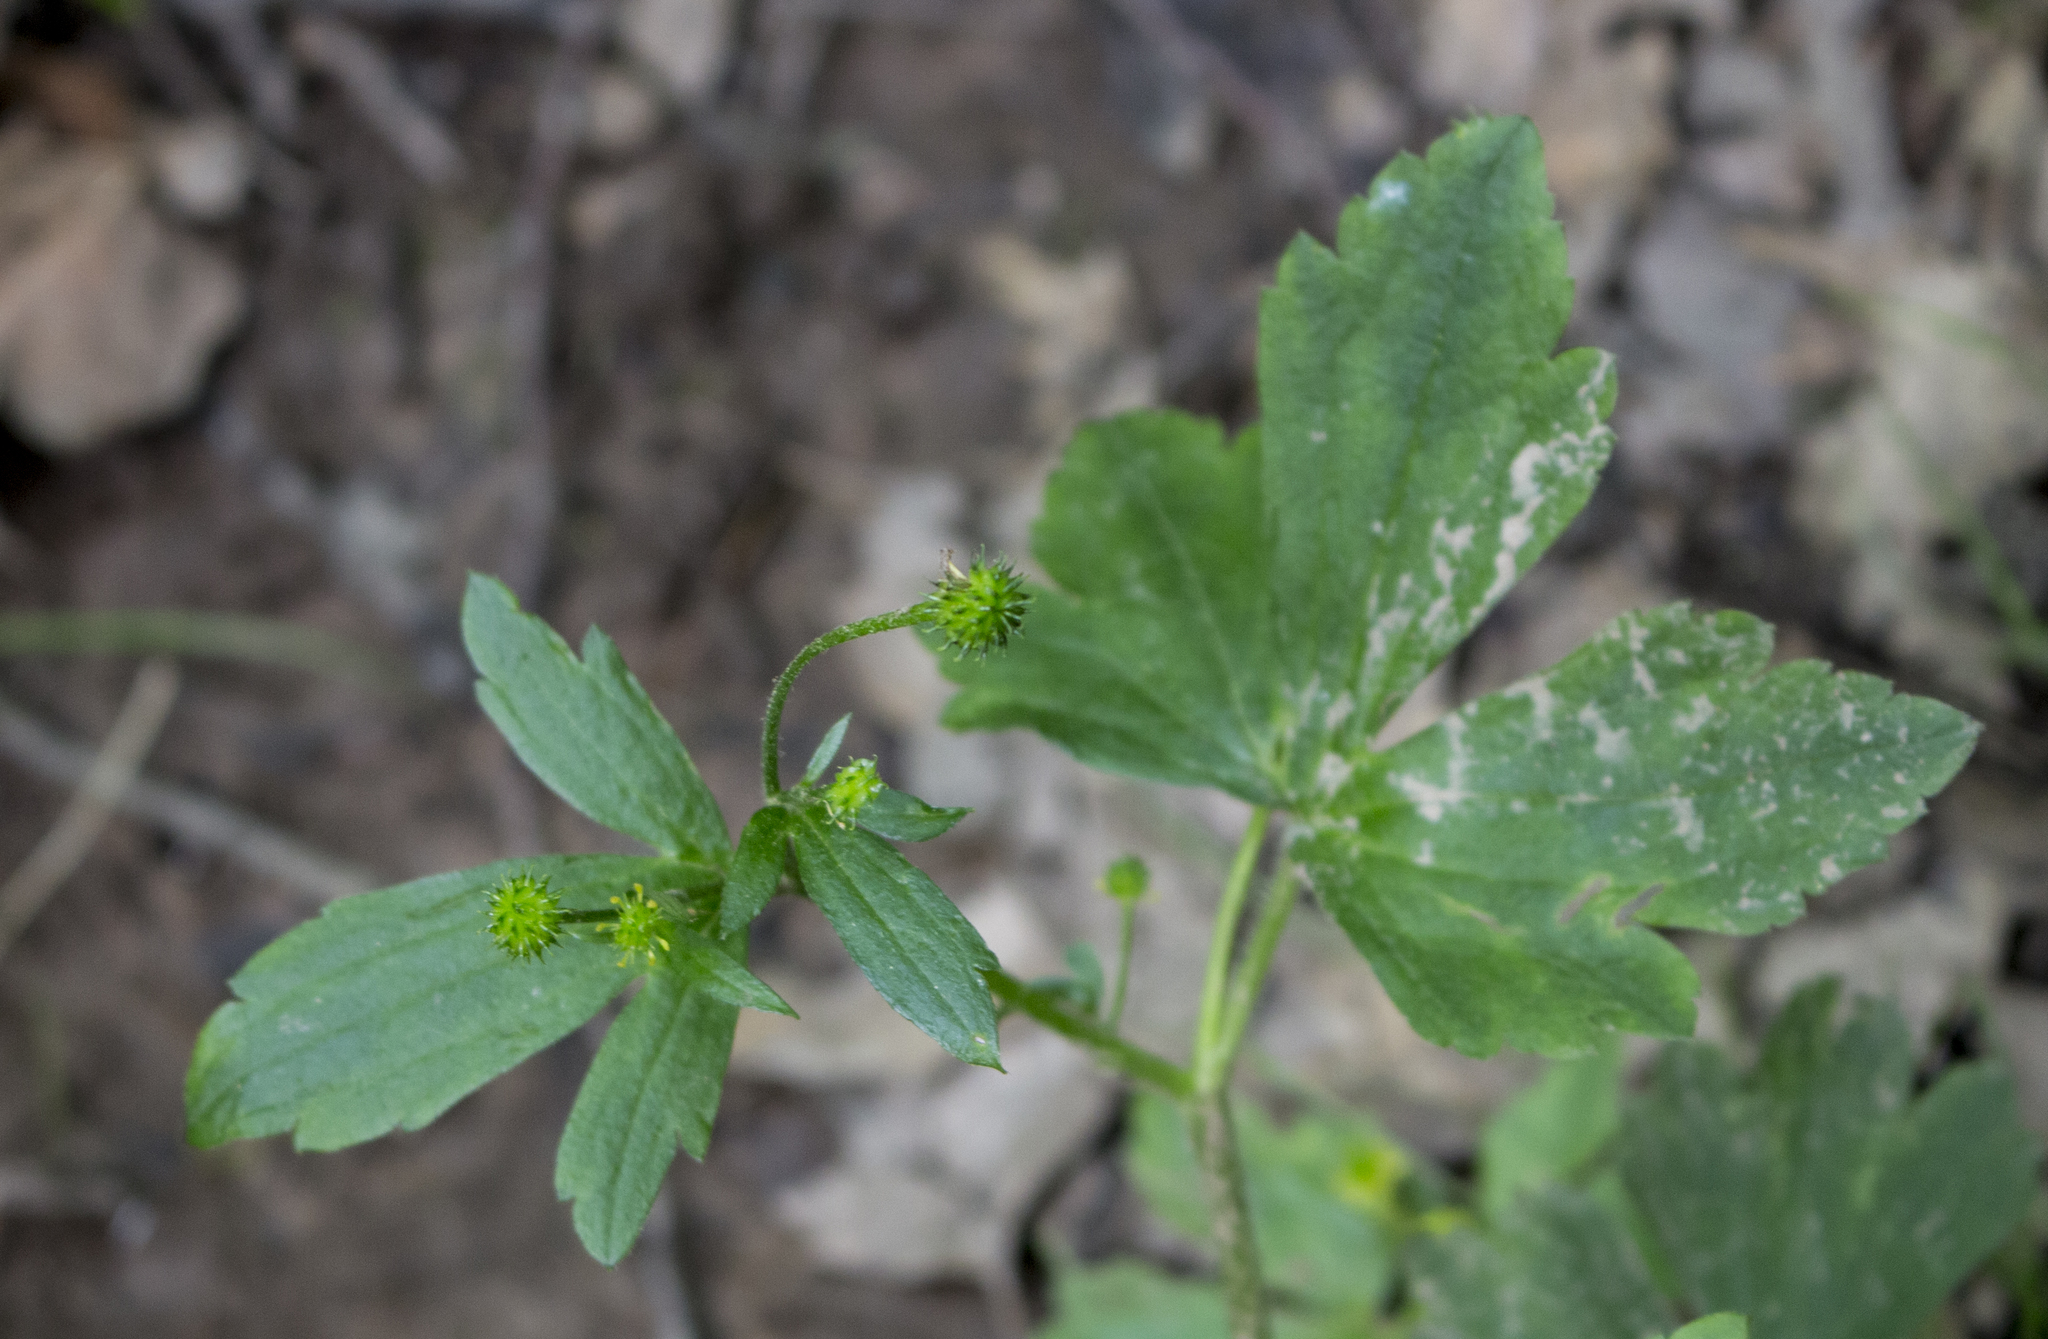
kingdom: Plantae
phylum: Tracheophyta
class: Magnoliopsida
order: Ranunculales
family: Ranunculaceae
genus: Ranunculus
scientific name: Ranunculus recurvatus
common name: Blisterwort
